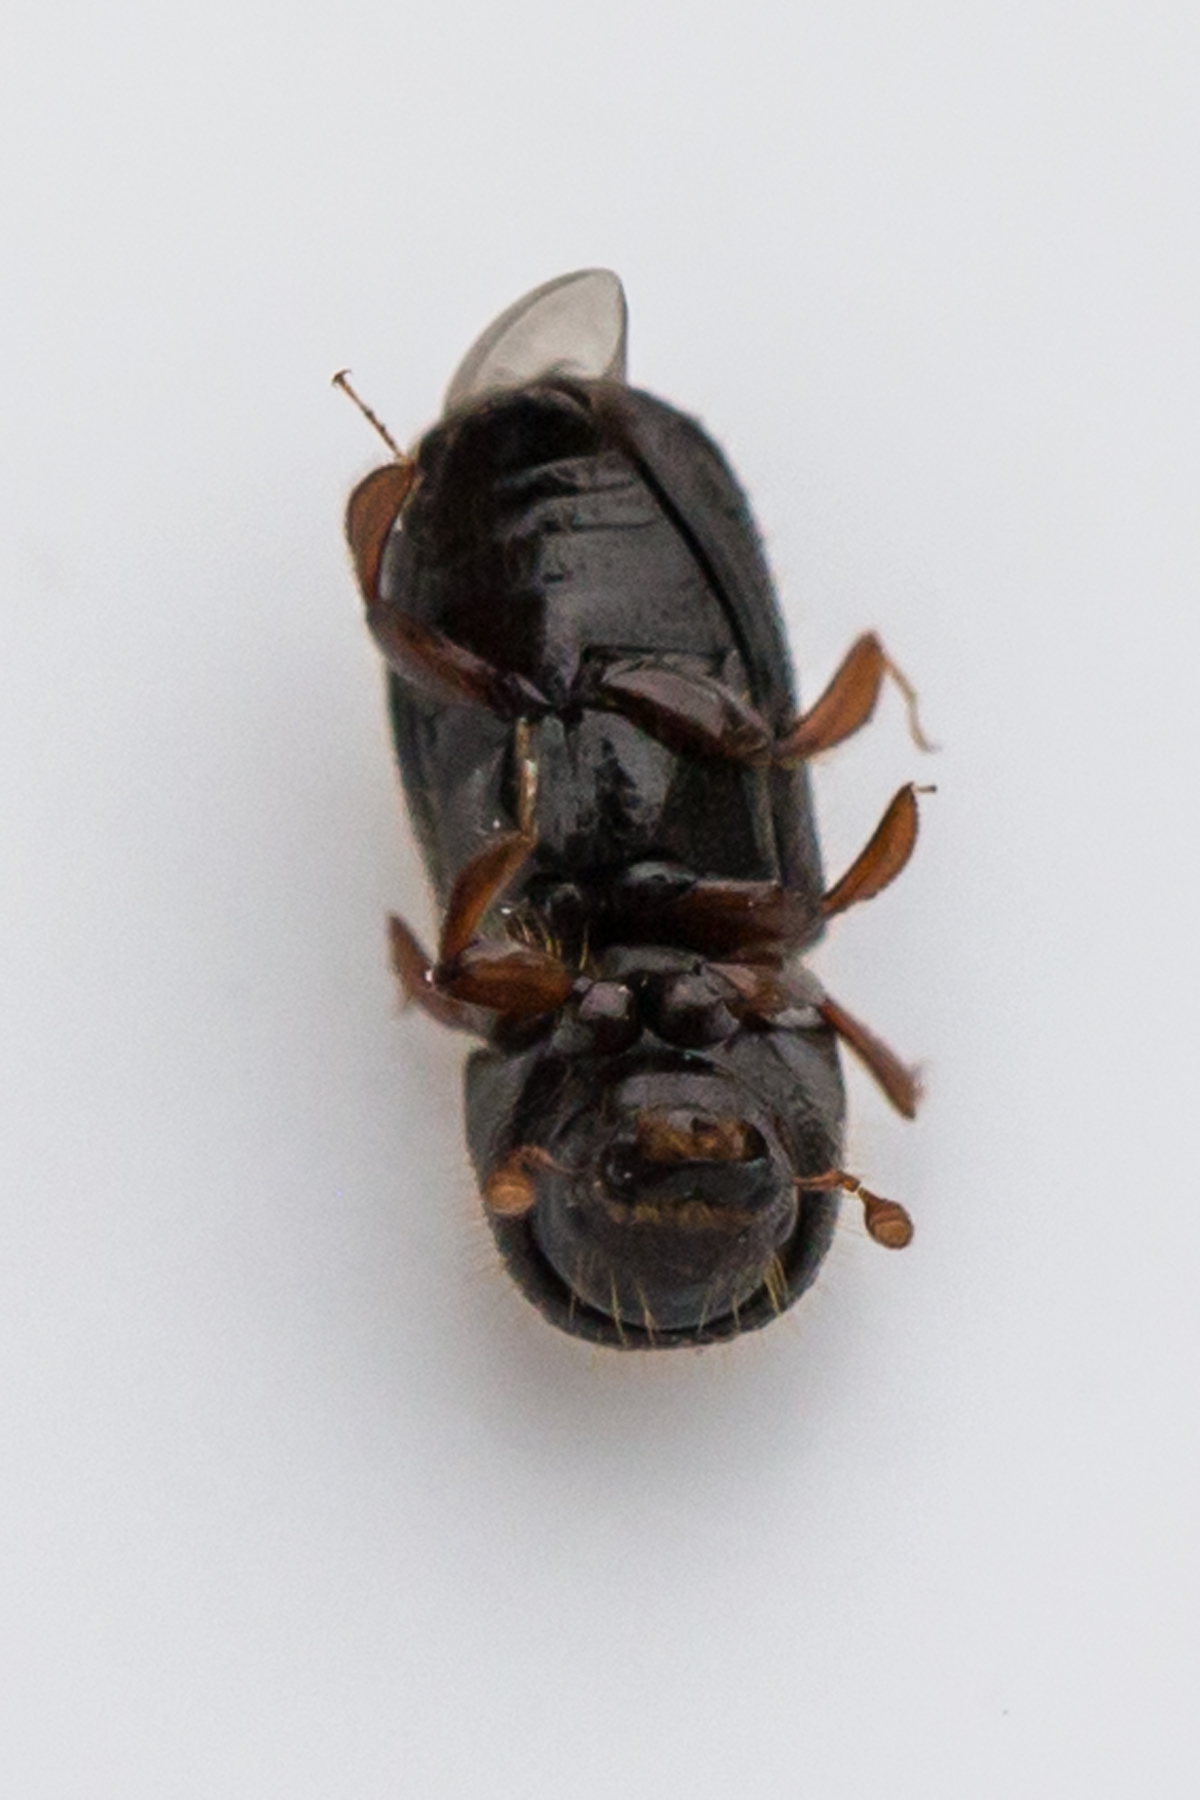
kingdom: Animalia
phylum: Arthropoda
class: Insecta
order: Coleoptera
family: Curculionidae
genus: Euwallacea
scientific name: Euwallacea validus
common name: Bark beetle
